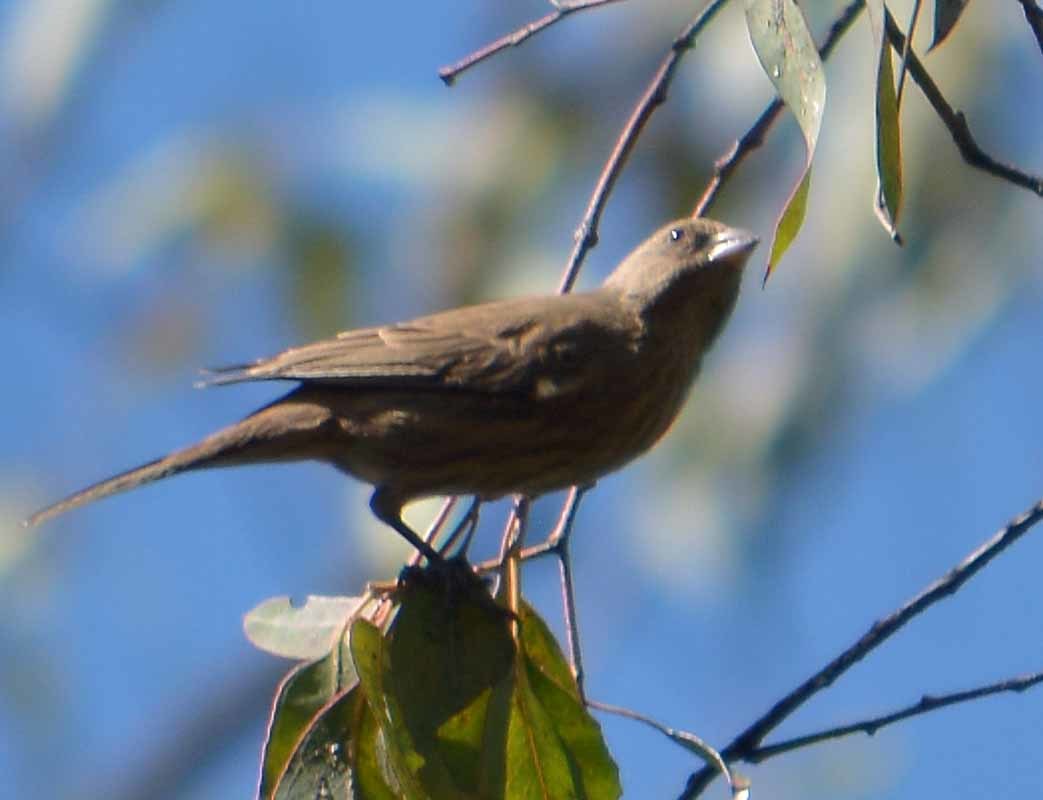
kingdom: Animalia
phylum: Chordata
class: Aves
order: Passeriformes
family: Fringillidae
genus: Haemorhous
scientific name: Haemorhous mexicanus
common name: House finch
